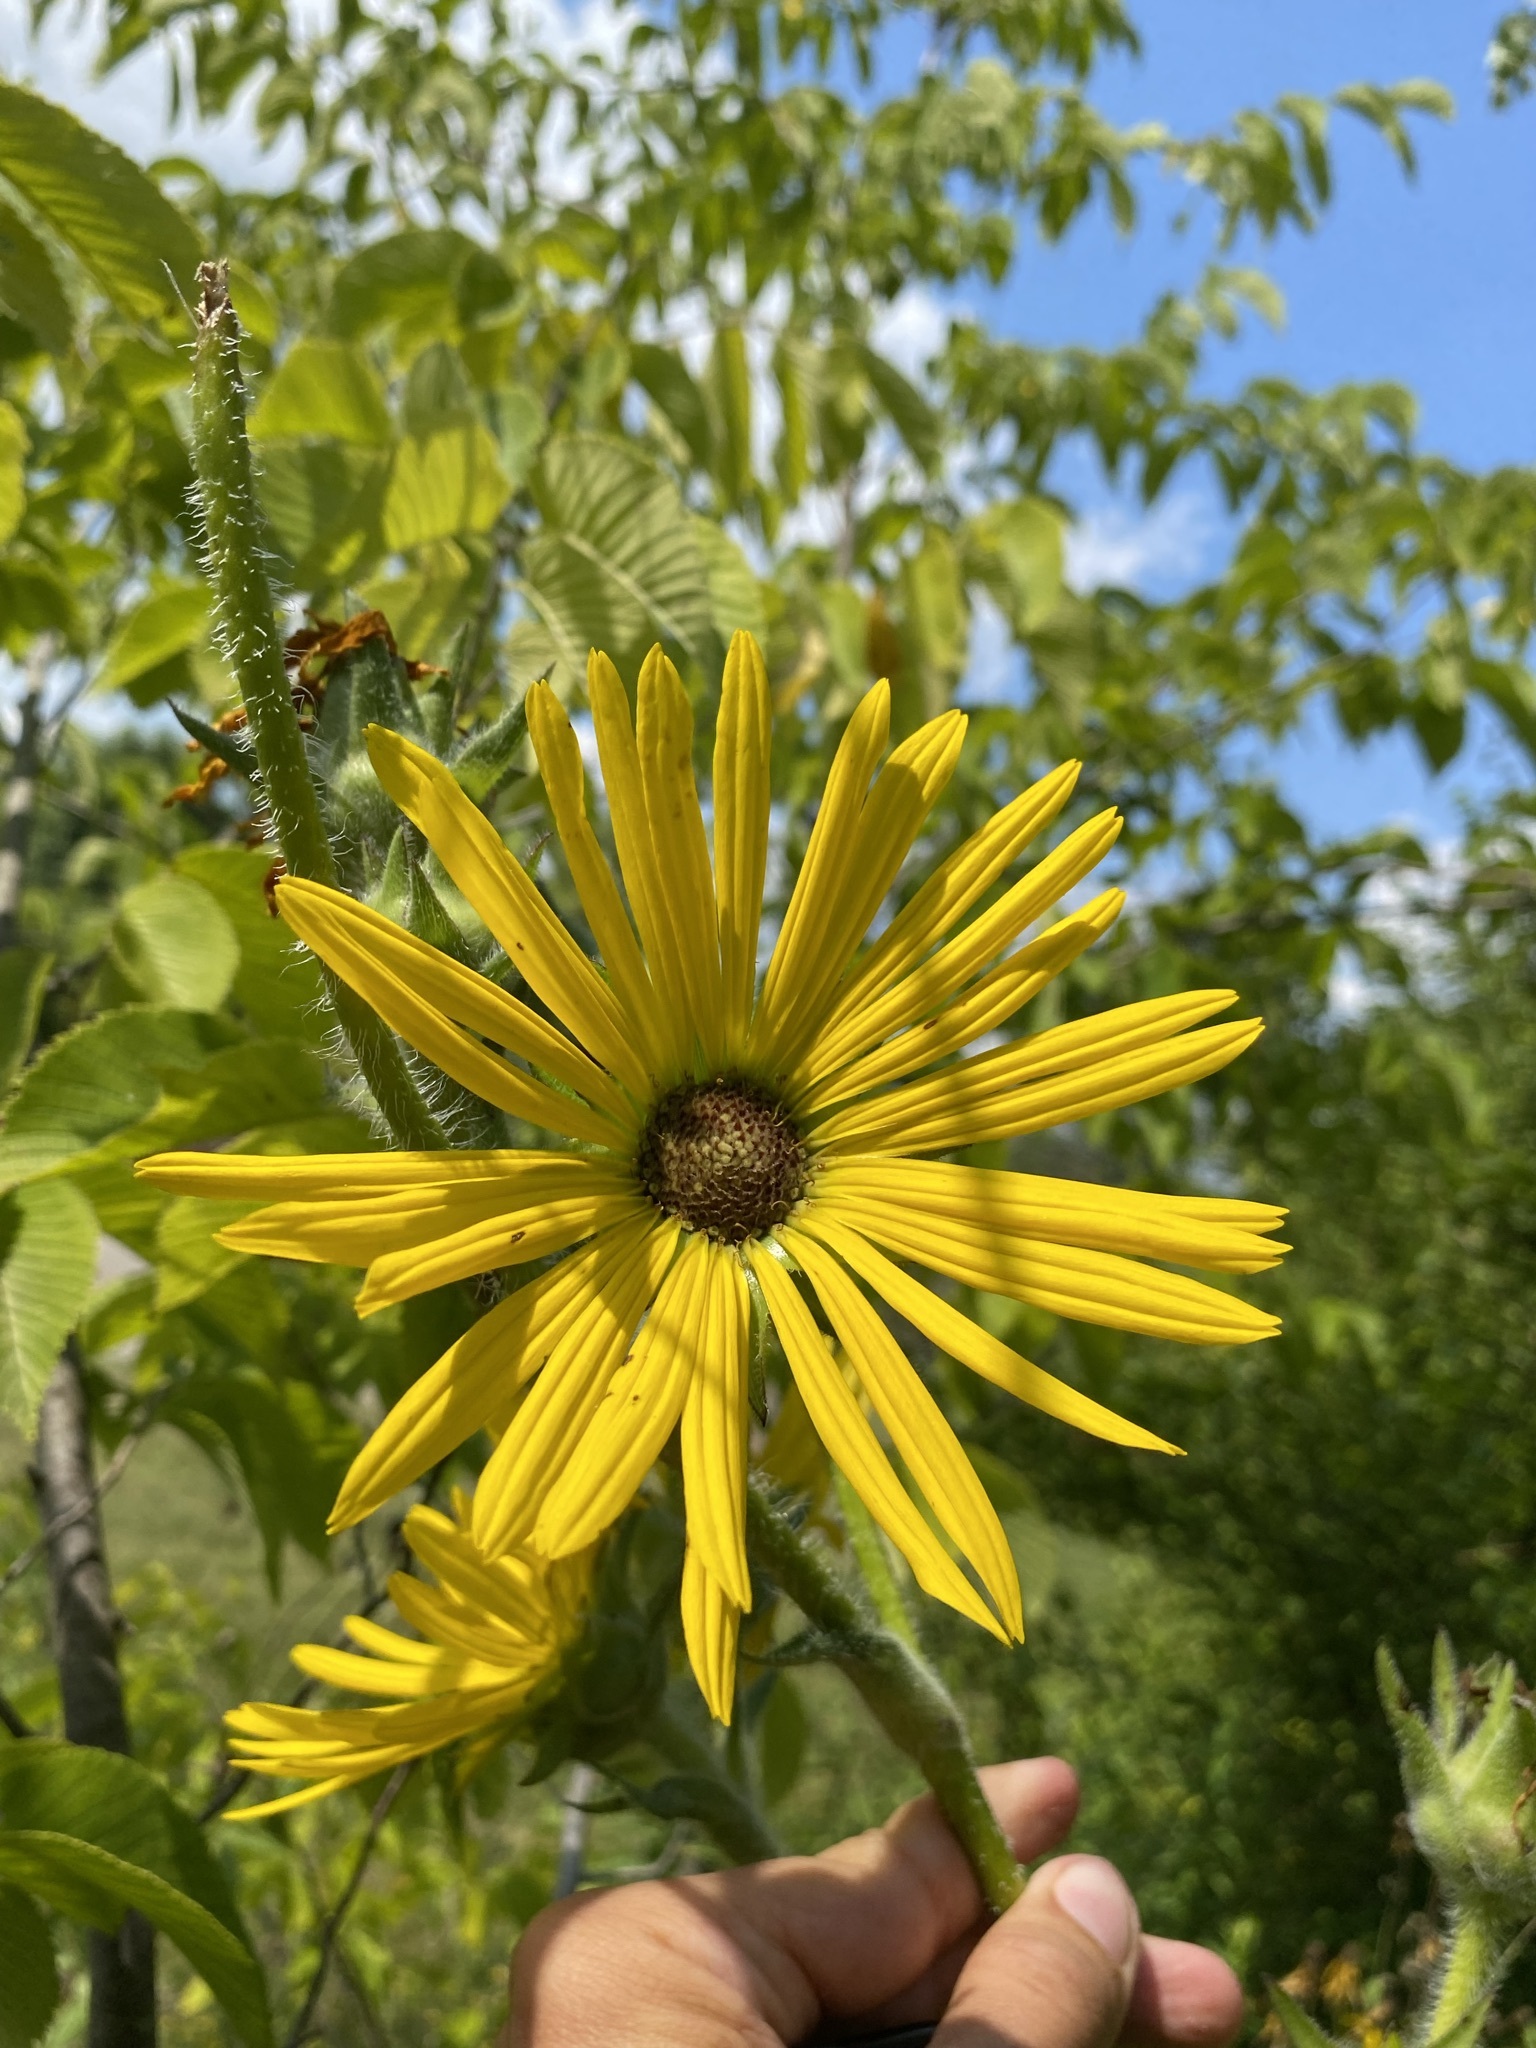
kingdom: Plantae
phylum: Tracheophyta
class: Magnoliopsida
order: Asterales
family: Asteraceae
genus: Silphium
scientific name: Silphium laciniatum
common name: Polarplant
